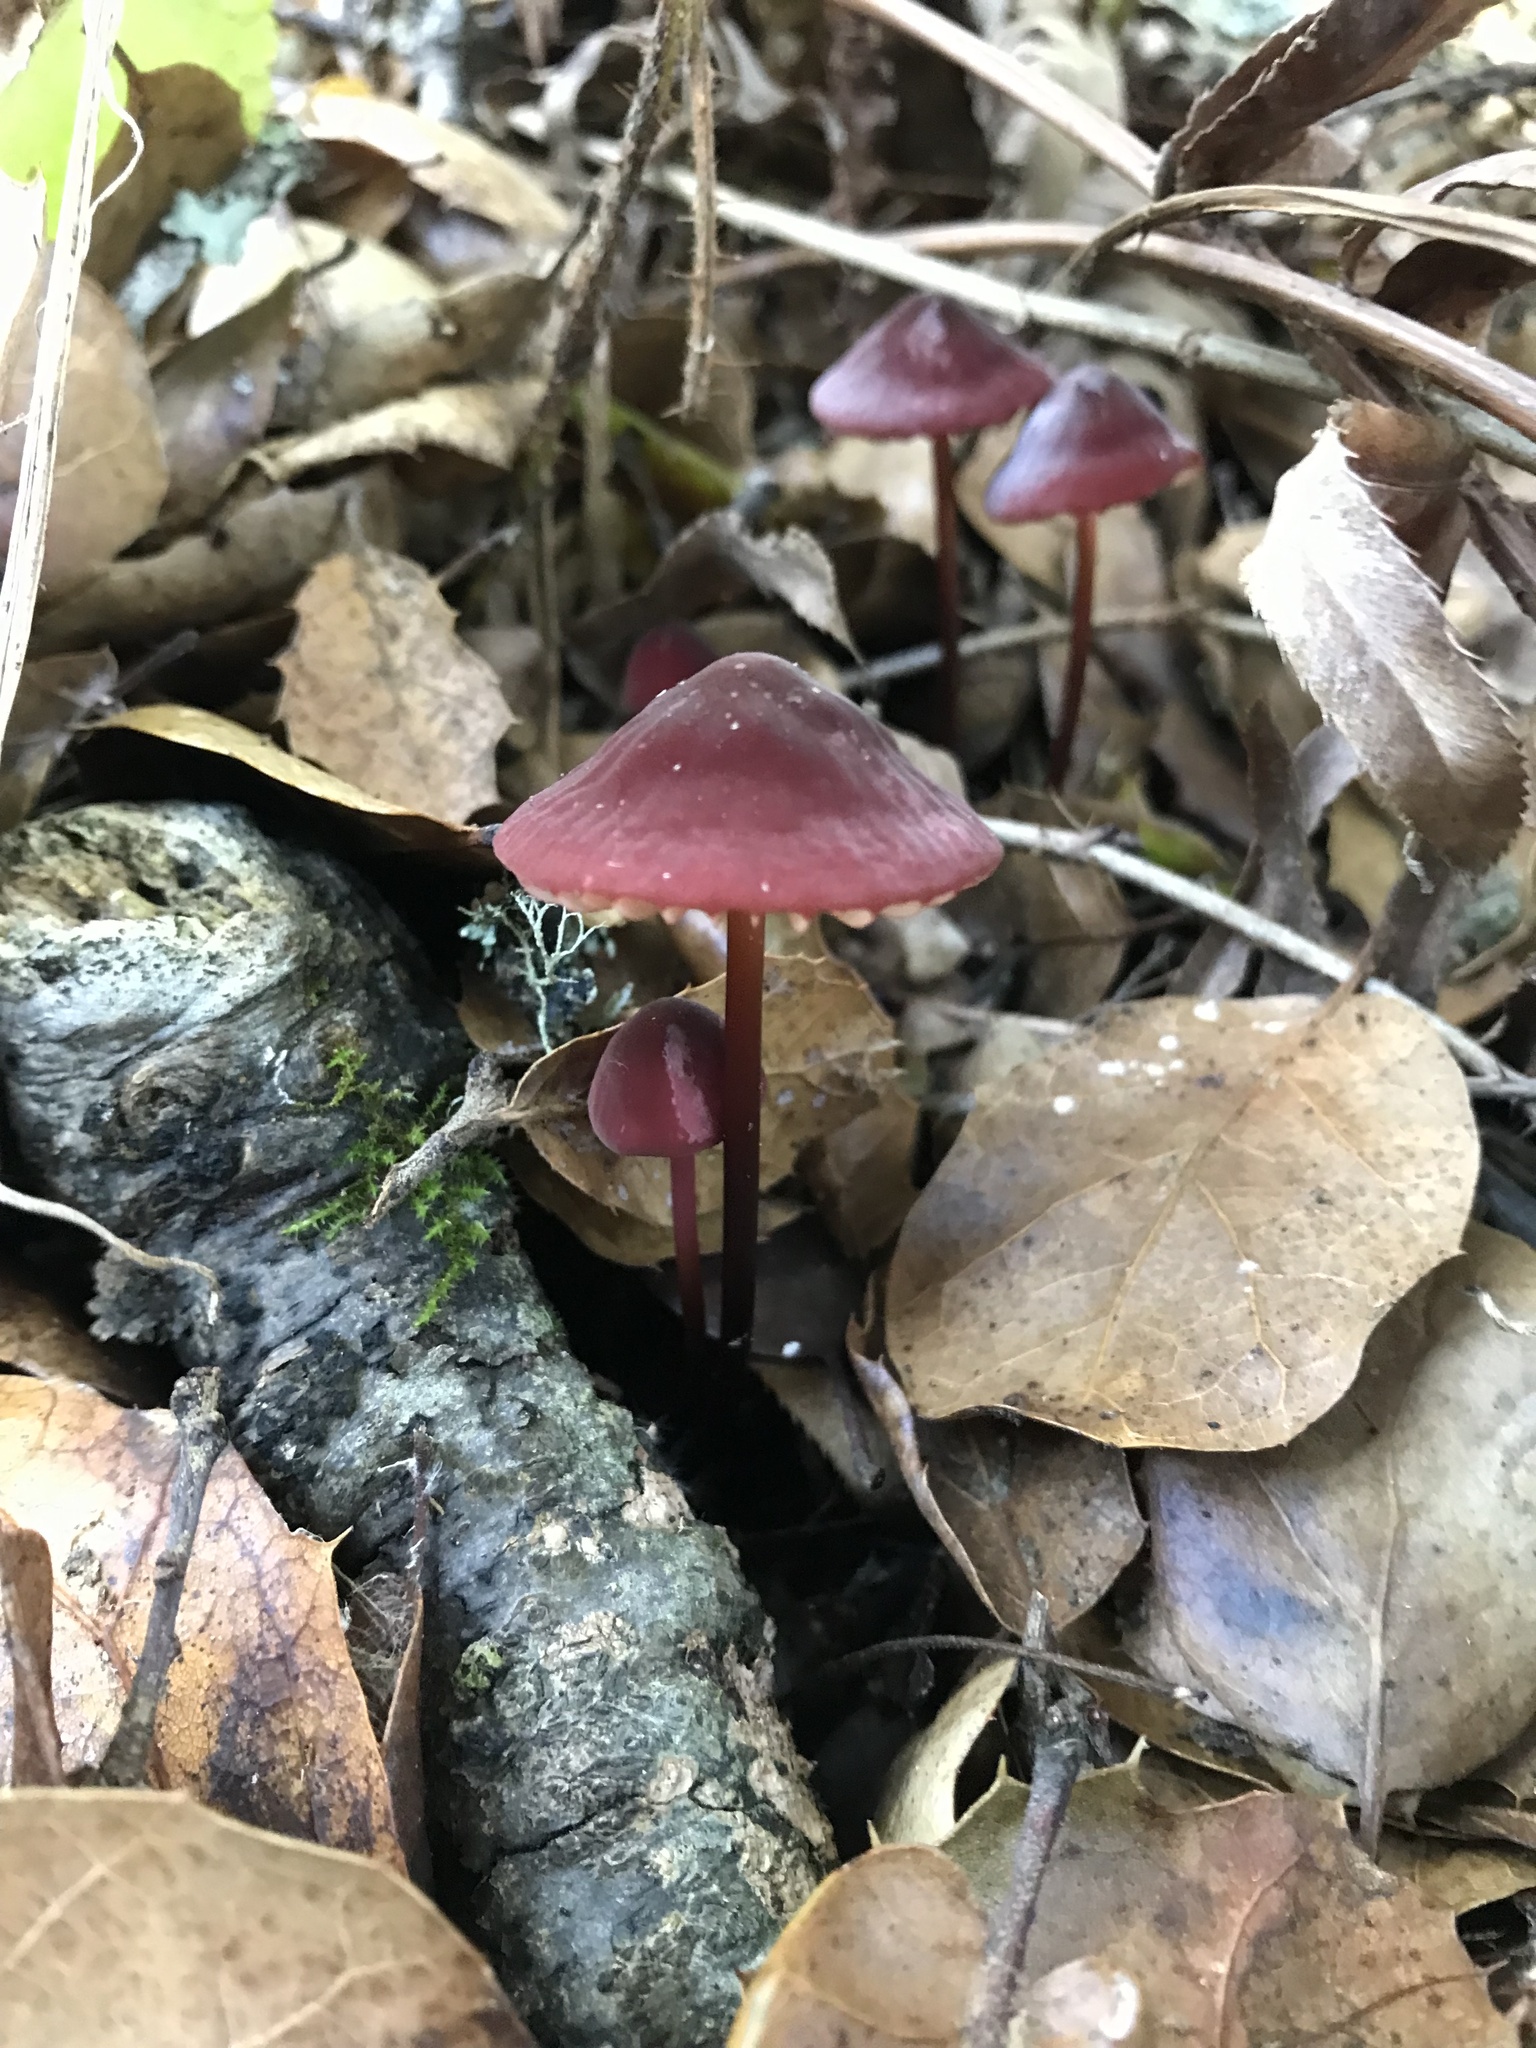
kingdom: Fungi
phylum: Basidiomycota
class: Agaricomycetes
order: Agaricales
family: Marasmiaceae
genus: Marasmius
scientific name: Marasmius plicatulus
